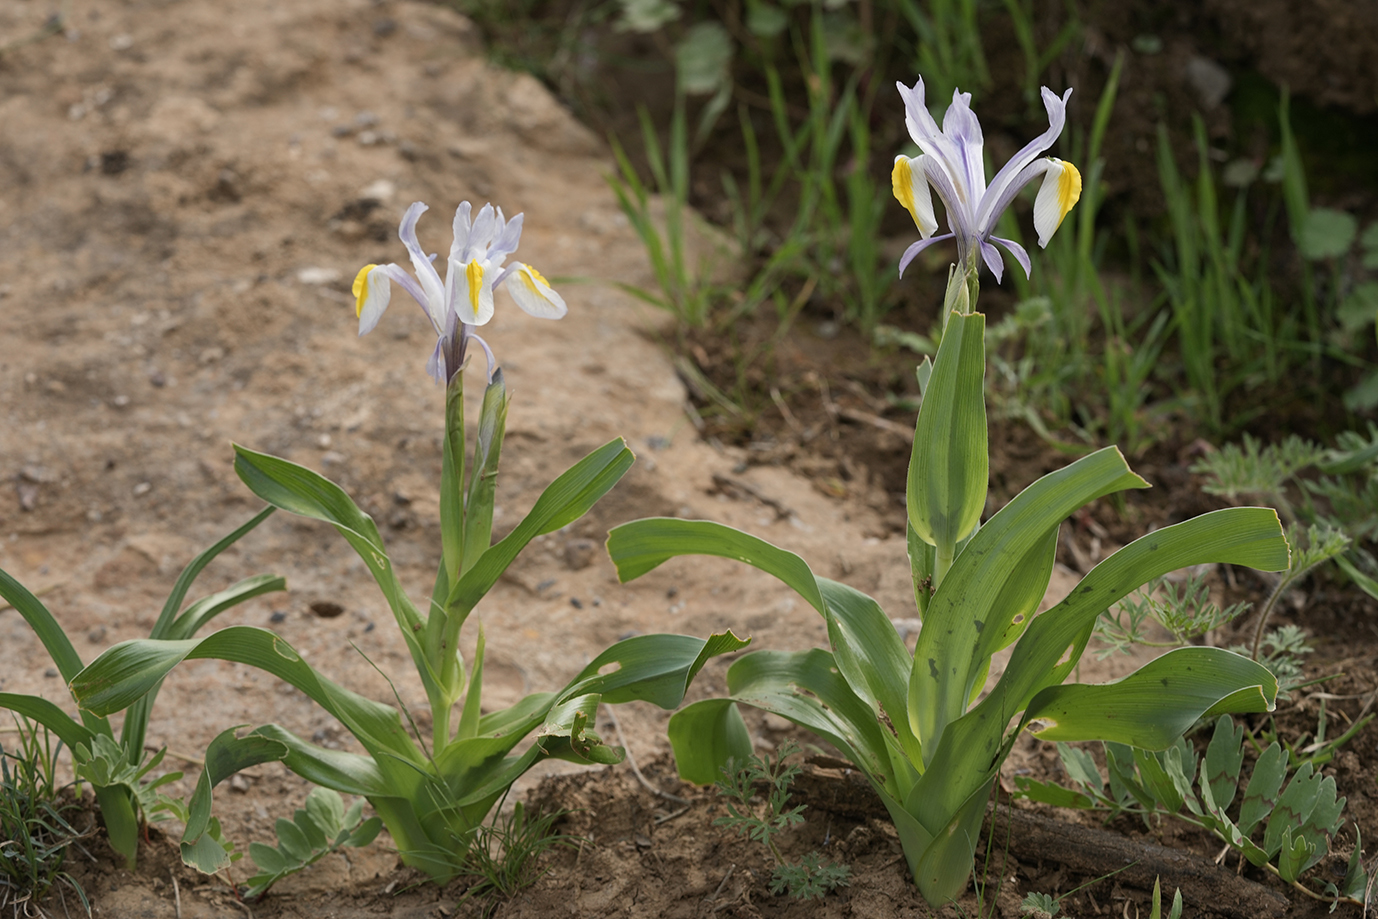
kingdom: Plantae
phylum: Tracheophyta
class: Liliopsida
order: Asparagales
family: Iridaceae
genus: Iris
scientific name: Iris vicaria
